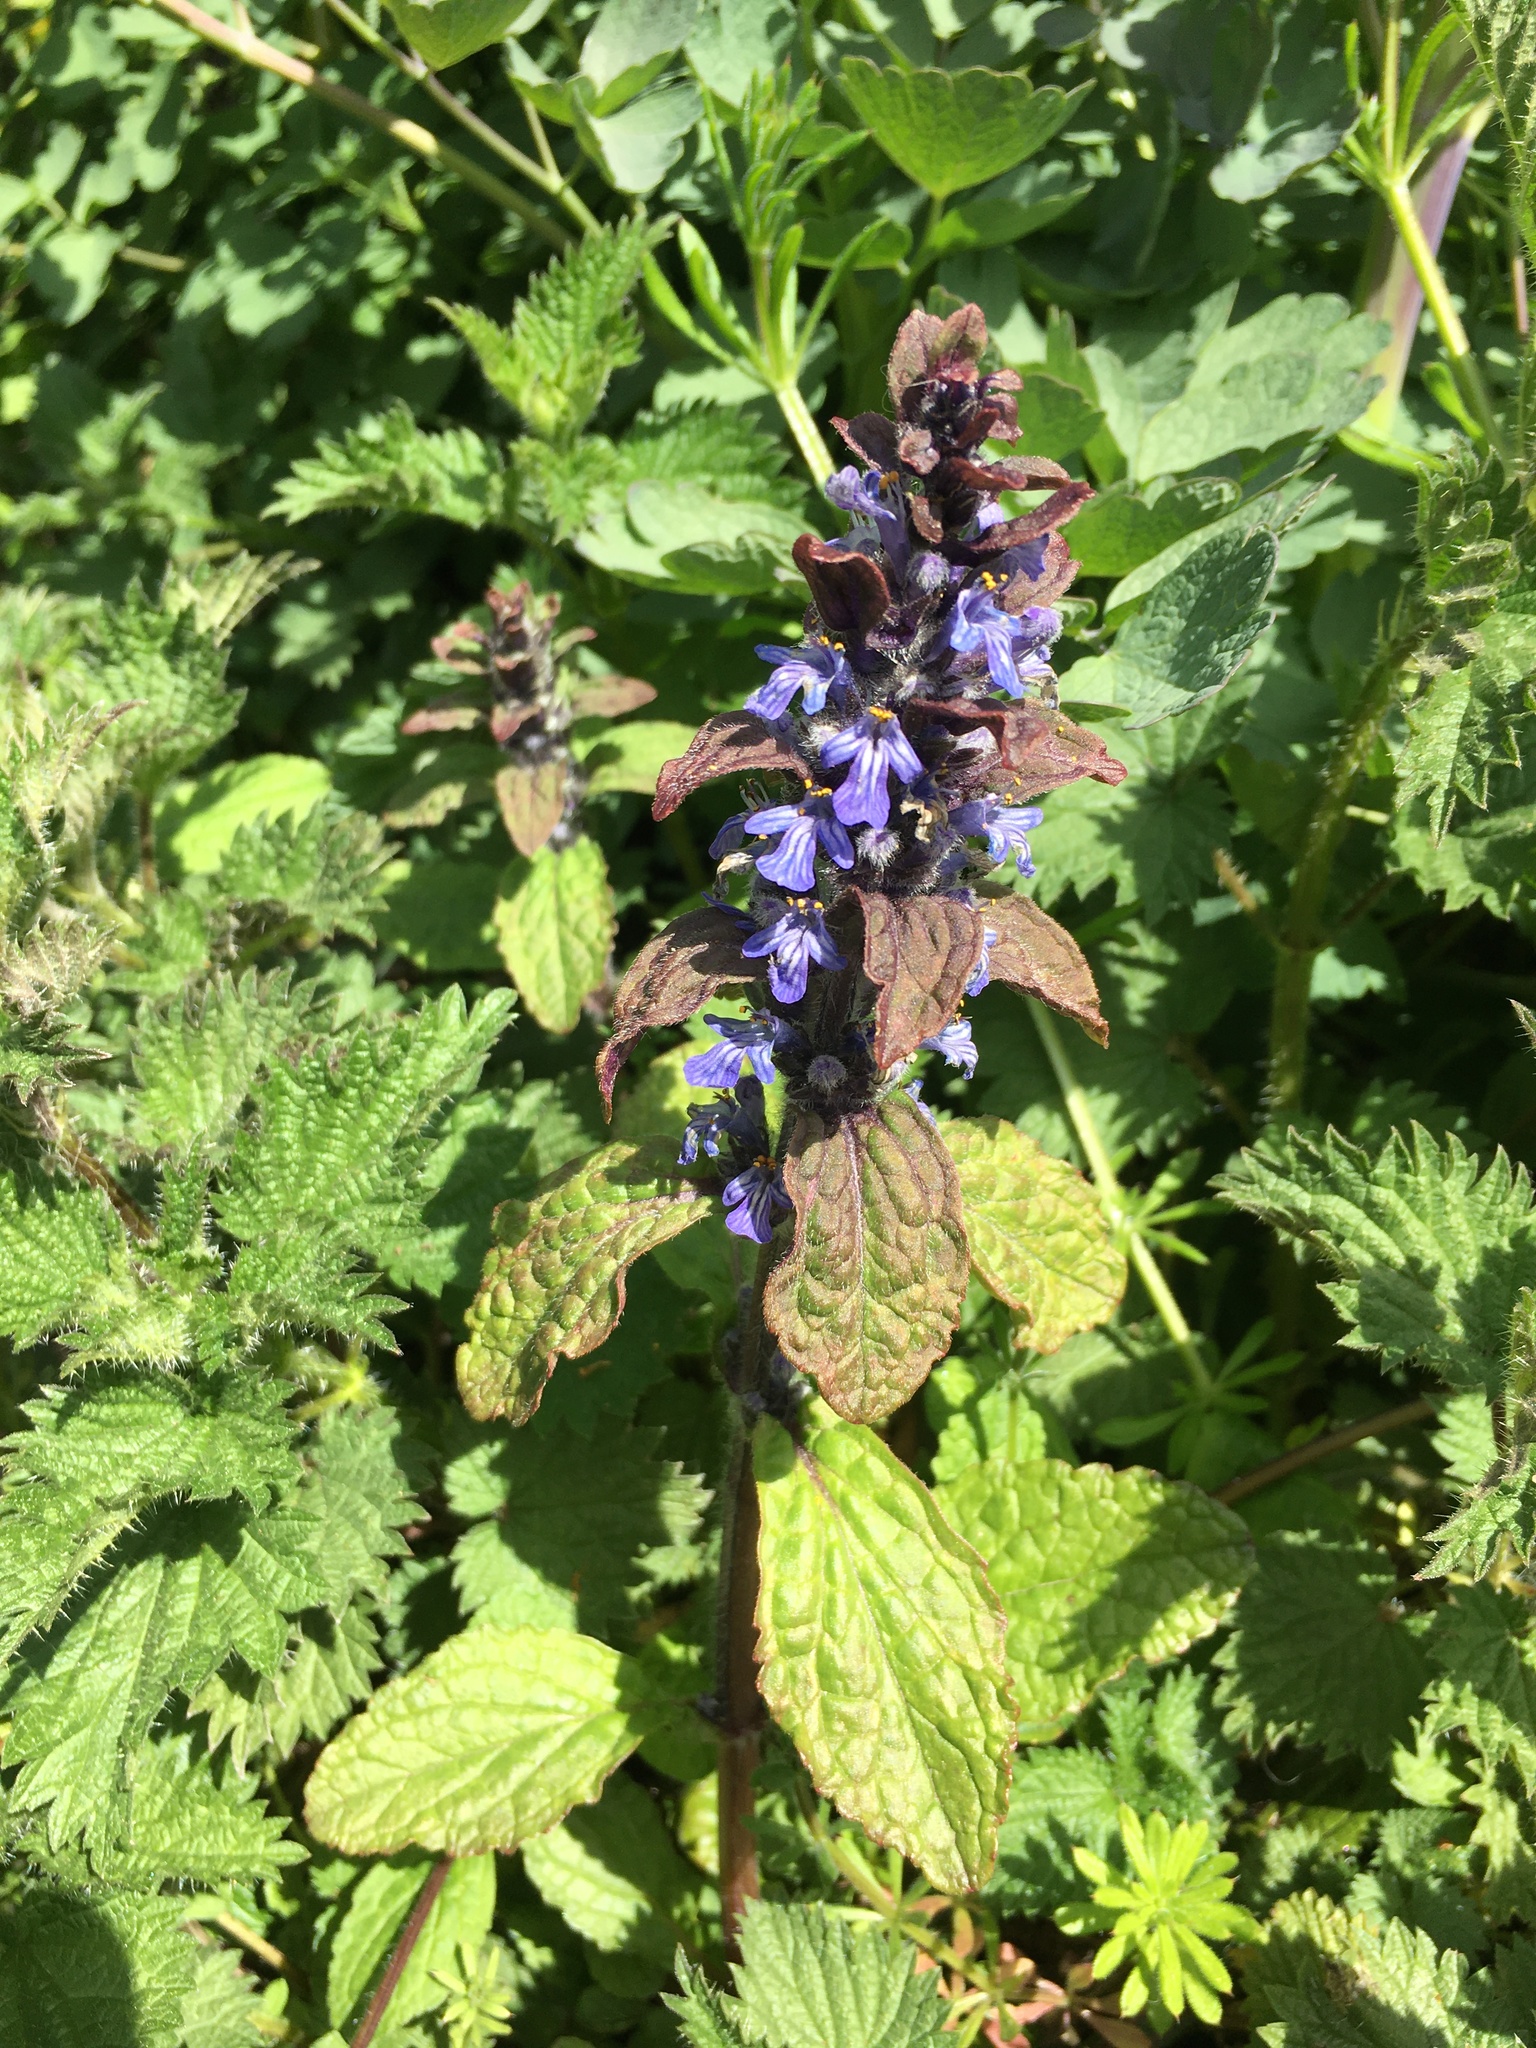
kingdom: Plantae
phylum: Tracheophyta
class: Magnoliopsida
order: Lamiales
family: Lamiaceae
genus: Ajuga
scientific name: Ajuga reptans
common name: Bugle
